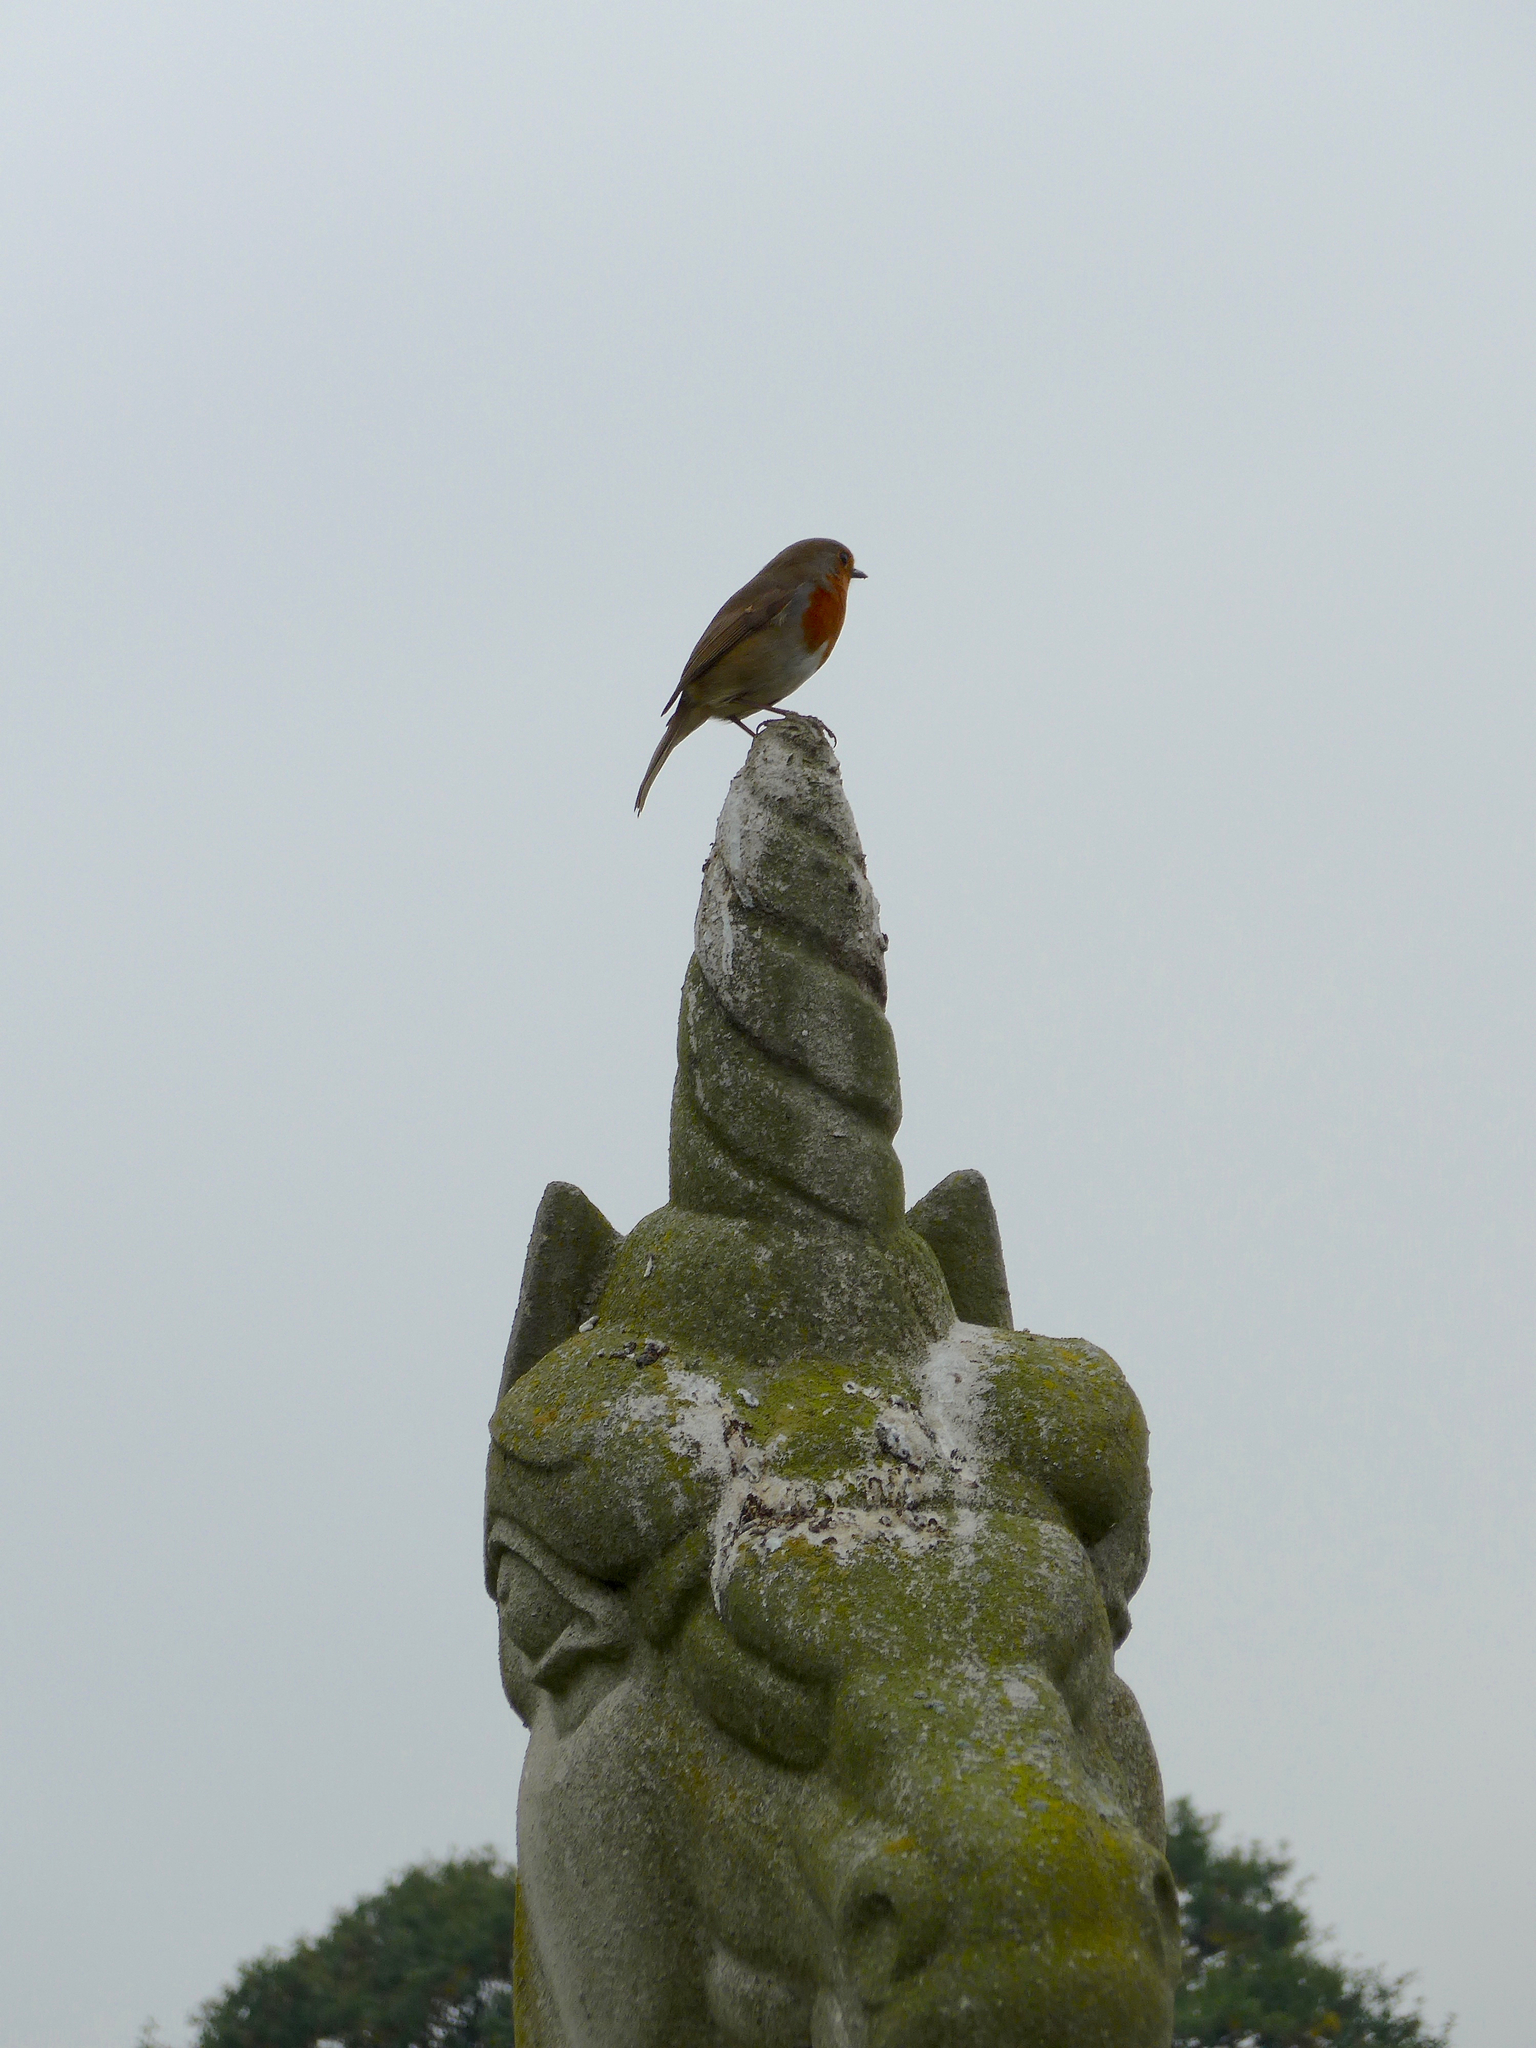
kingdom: Animalia
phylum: Chordata
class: Aves
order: Passeriformes
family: Muscicapidae
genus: Erithacus
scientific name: Erithacus rubecula
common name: European robin
